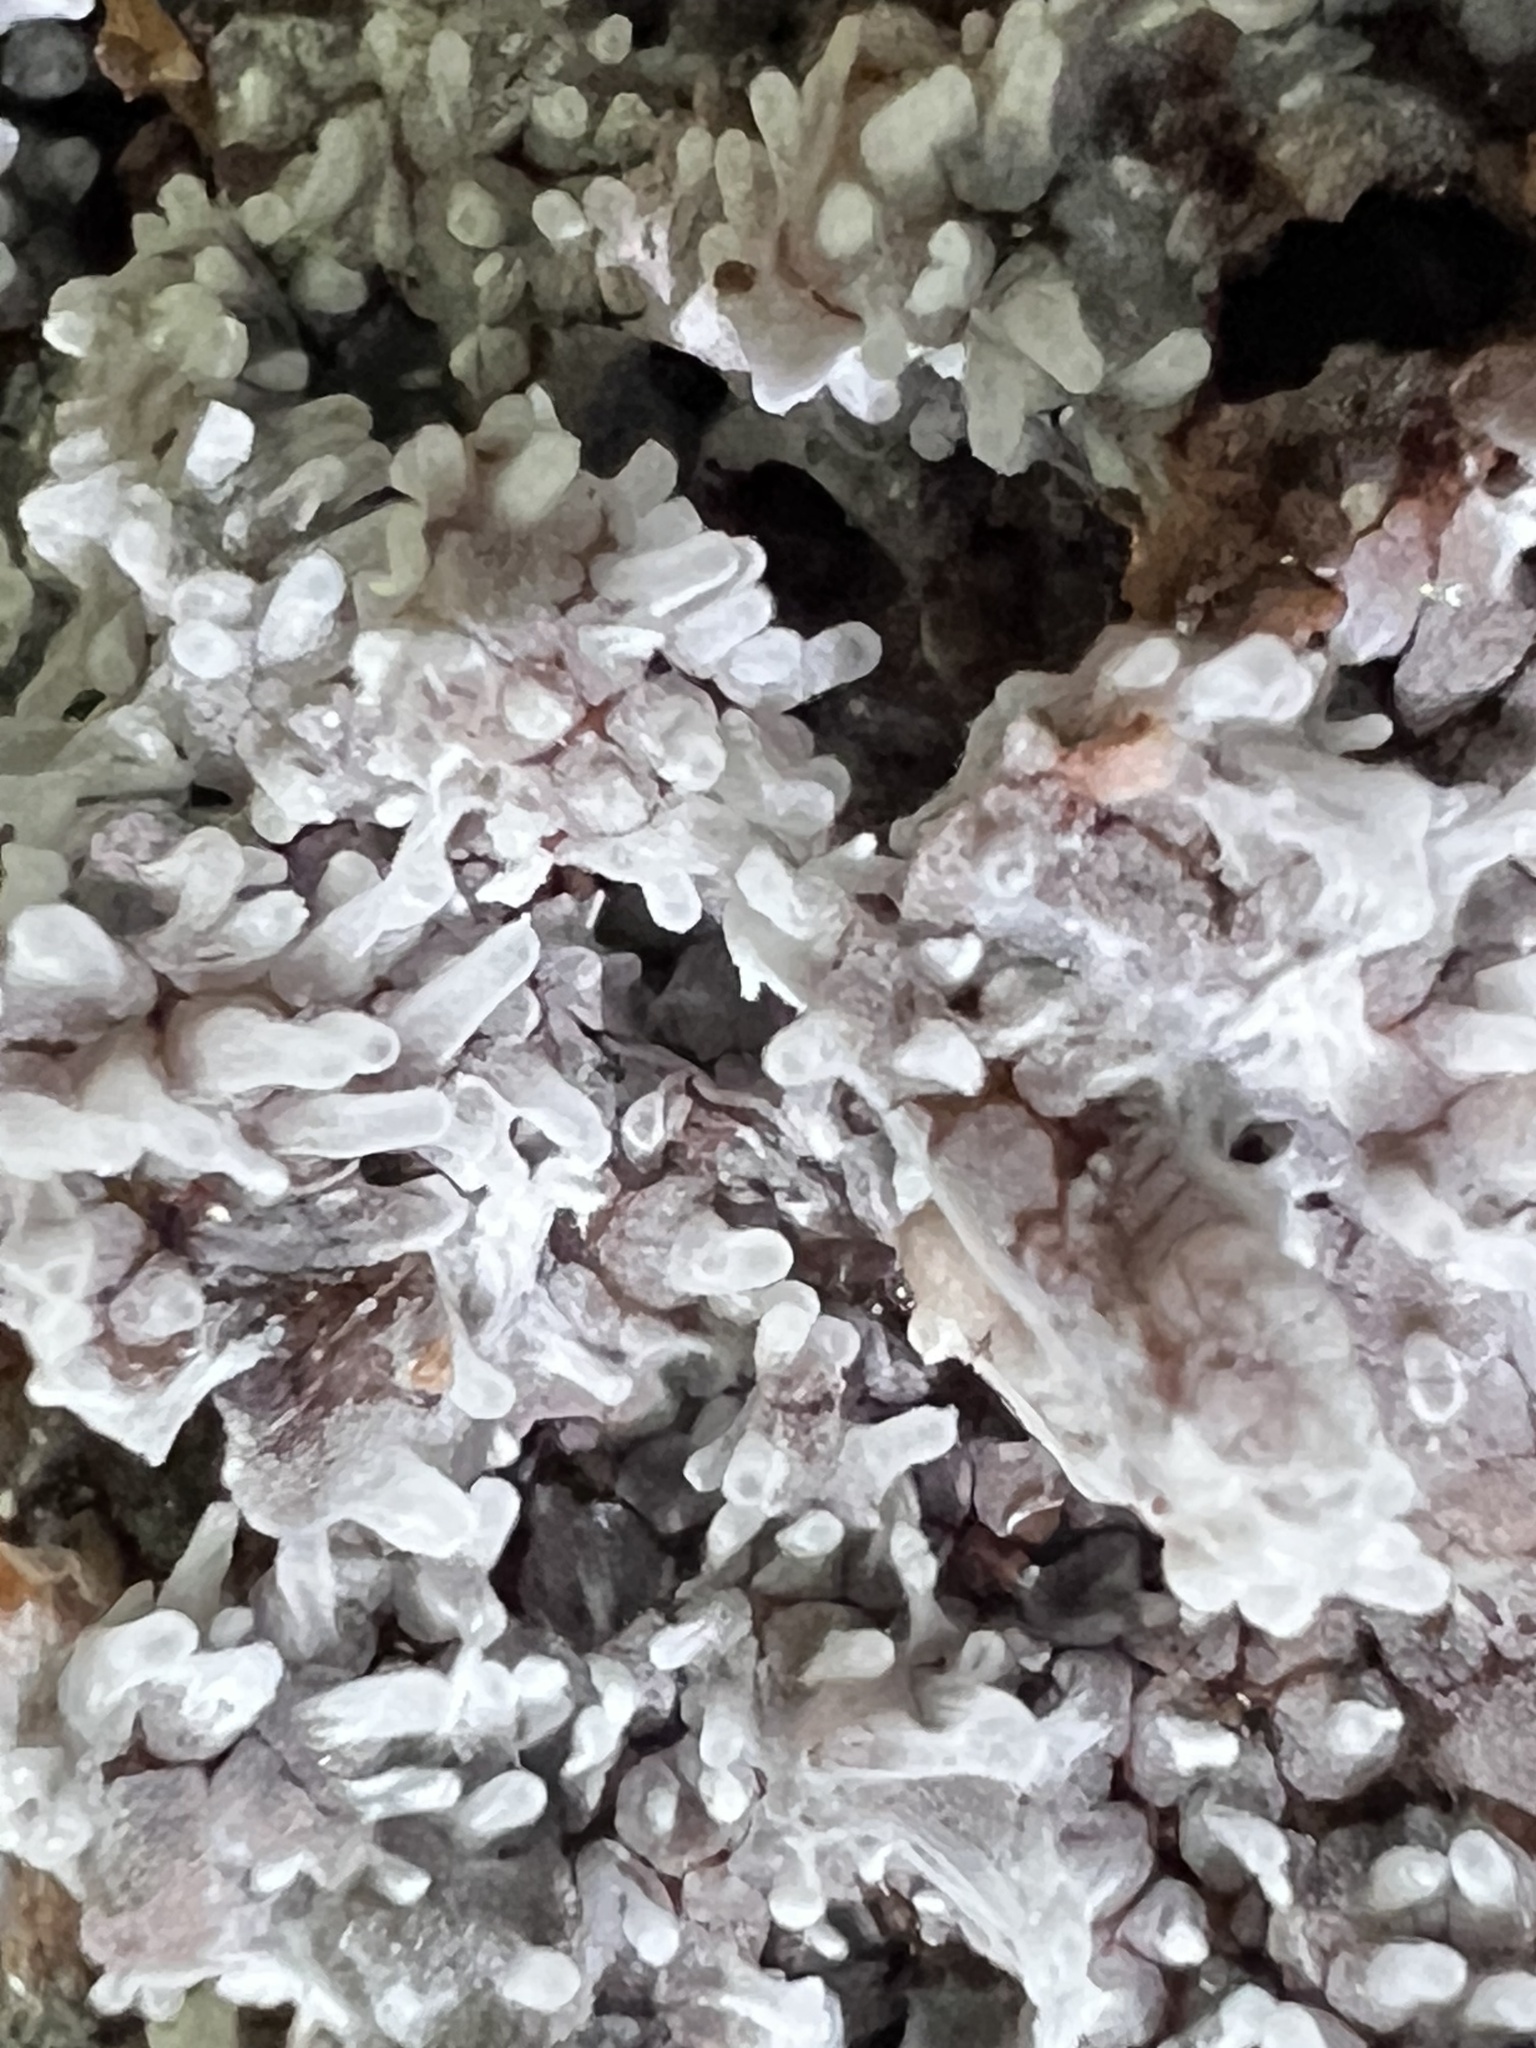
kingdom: Protozoa
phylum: Mycetozoa
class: Protosteliomycetes
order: Ceratiomyxales
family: Ceratiomyxaceae
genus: Ceratiomyxa
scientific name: Ceratiomyxa fruticulosa
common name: Honeycomb coral slime mold
